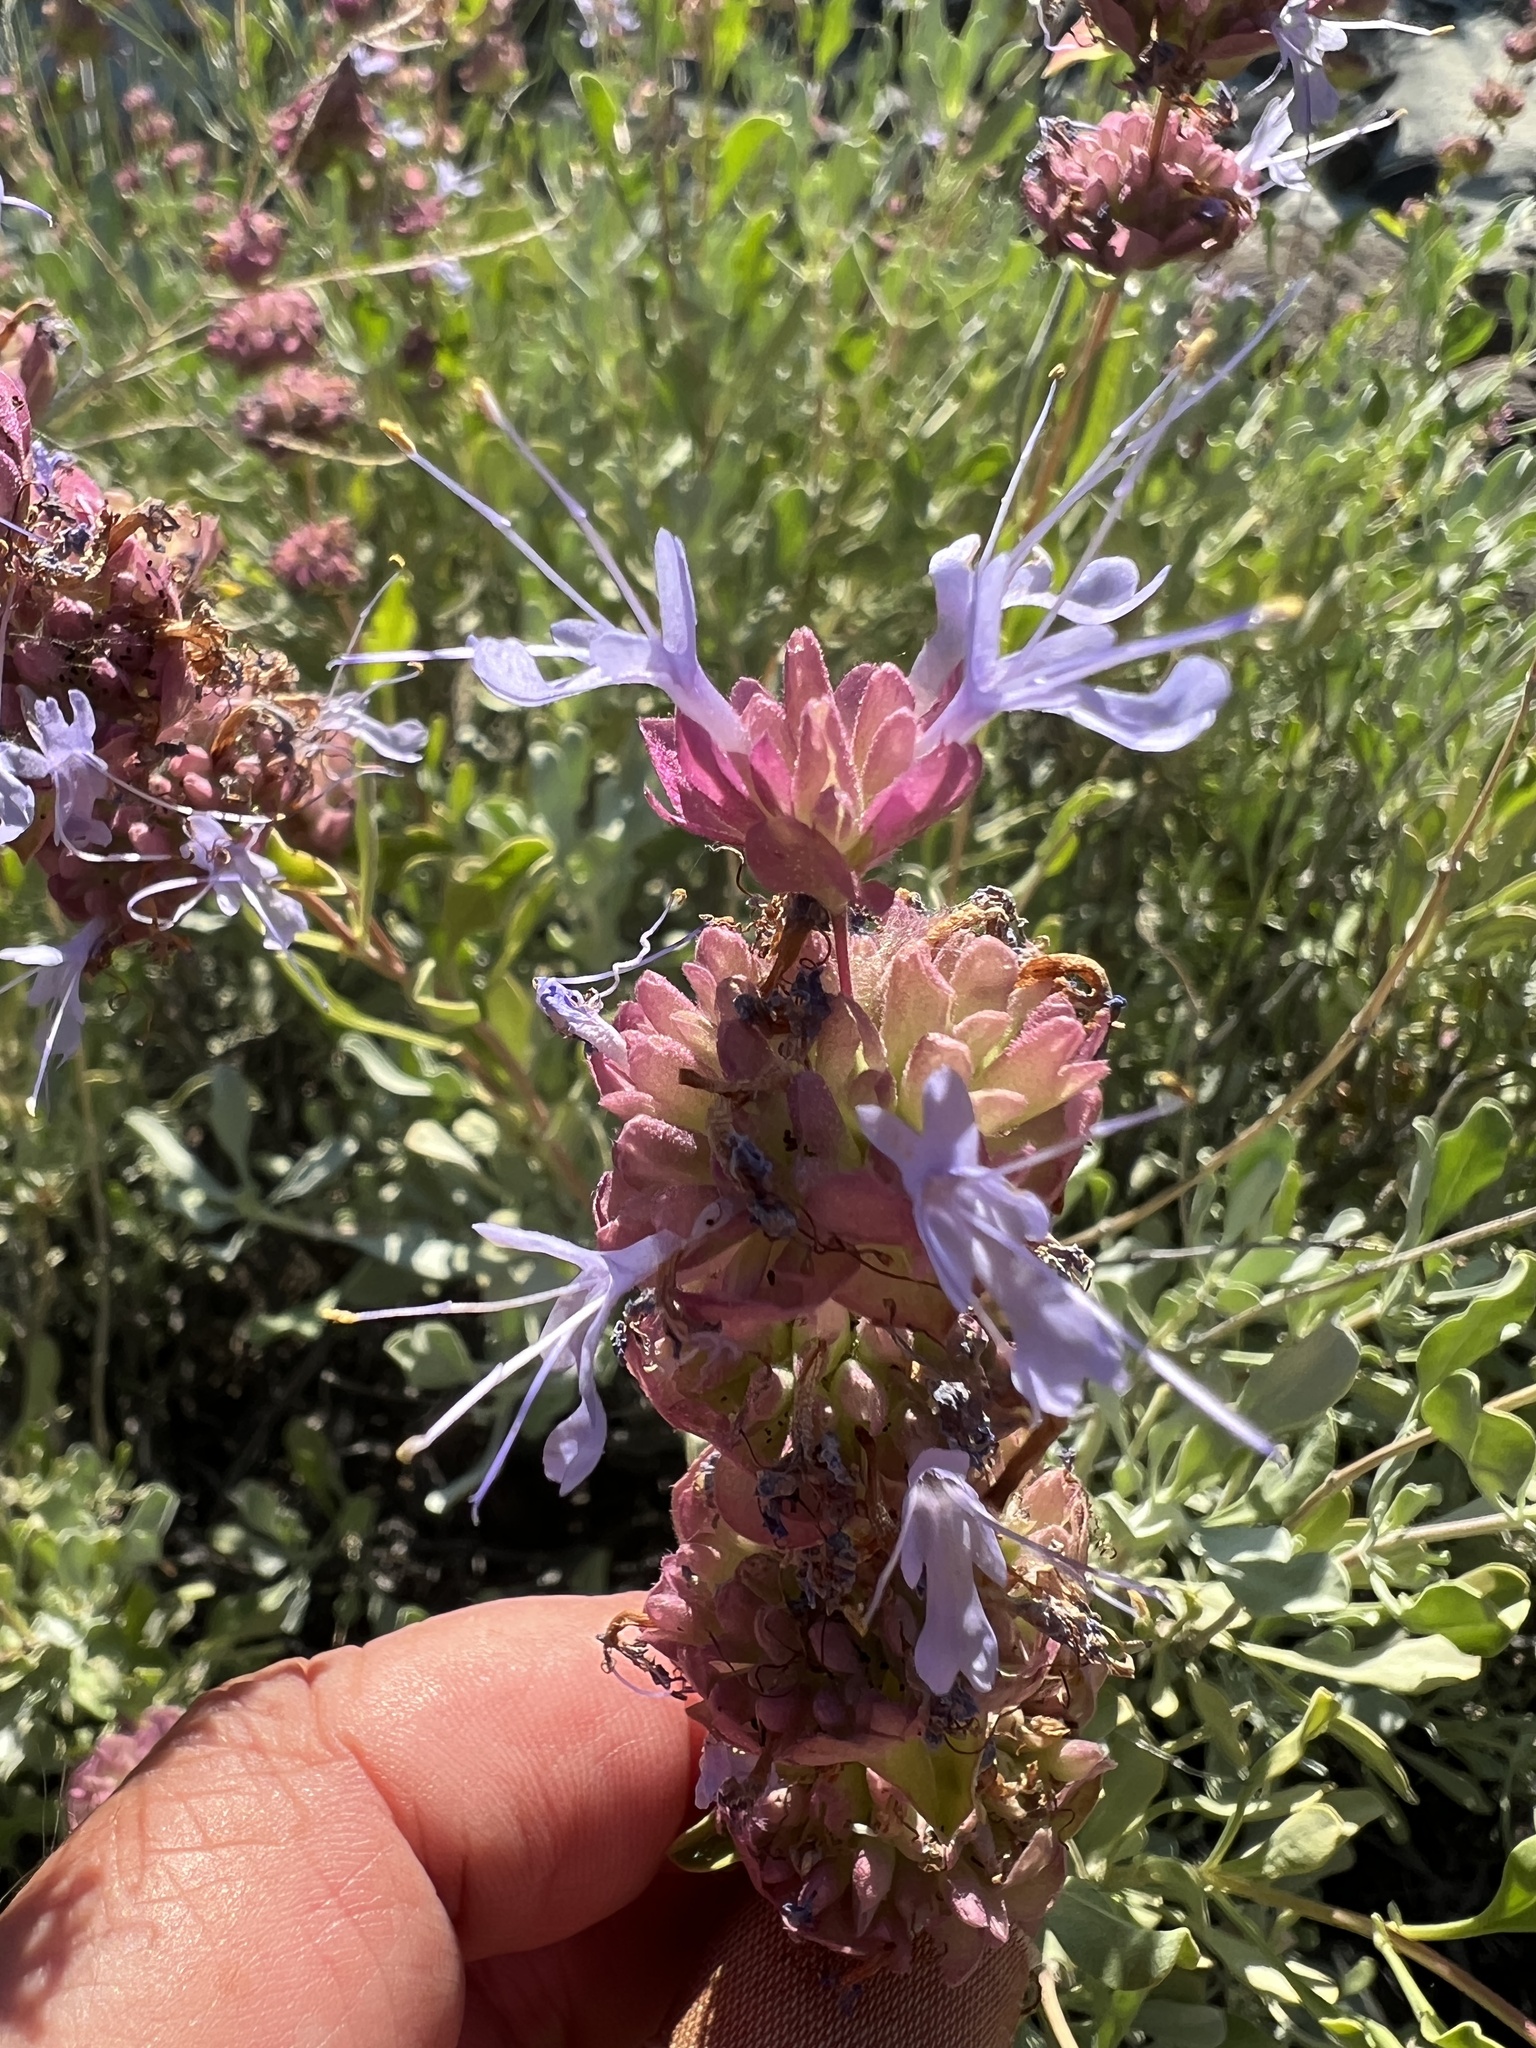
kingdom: Plantae
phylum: Tracheophyta
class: Magnoliopsida
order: Lamiales
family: Lamiaceae
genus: Salvia
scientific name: Salvia dorrii
